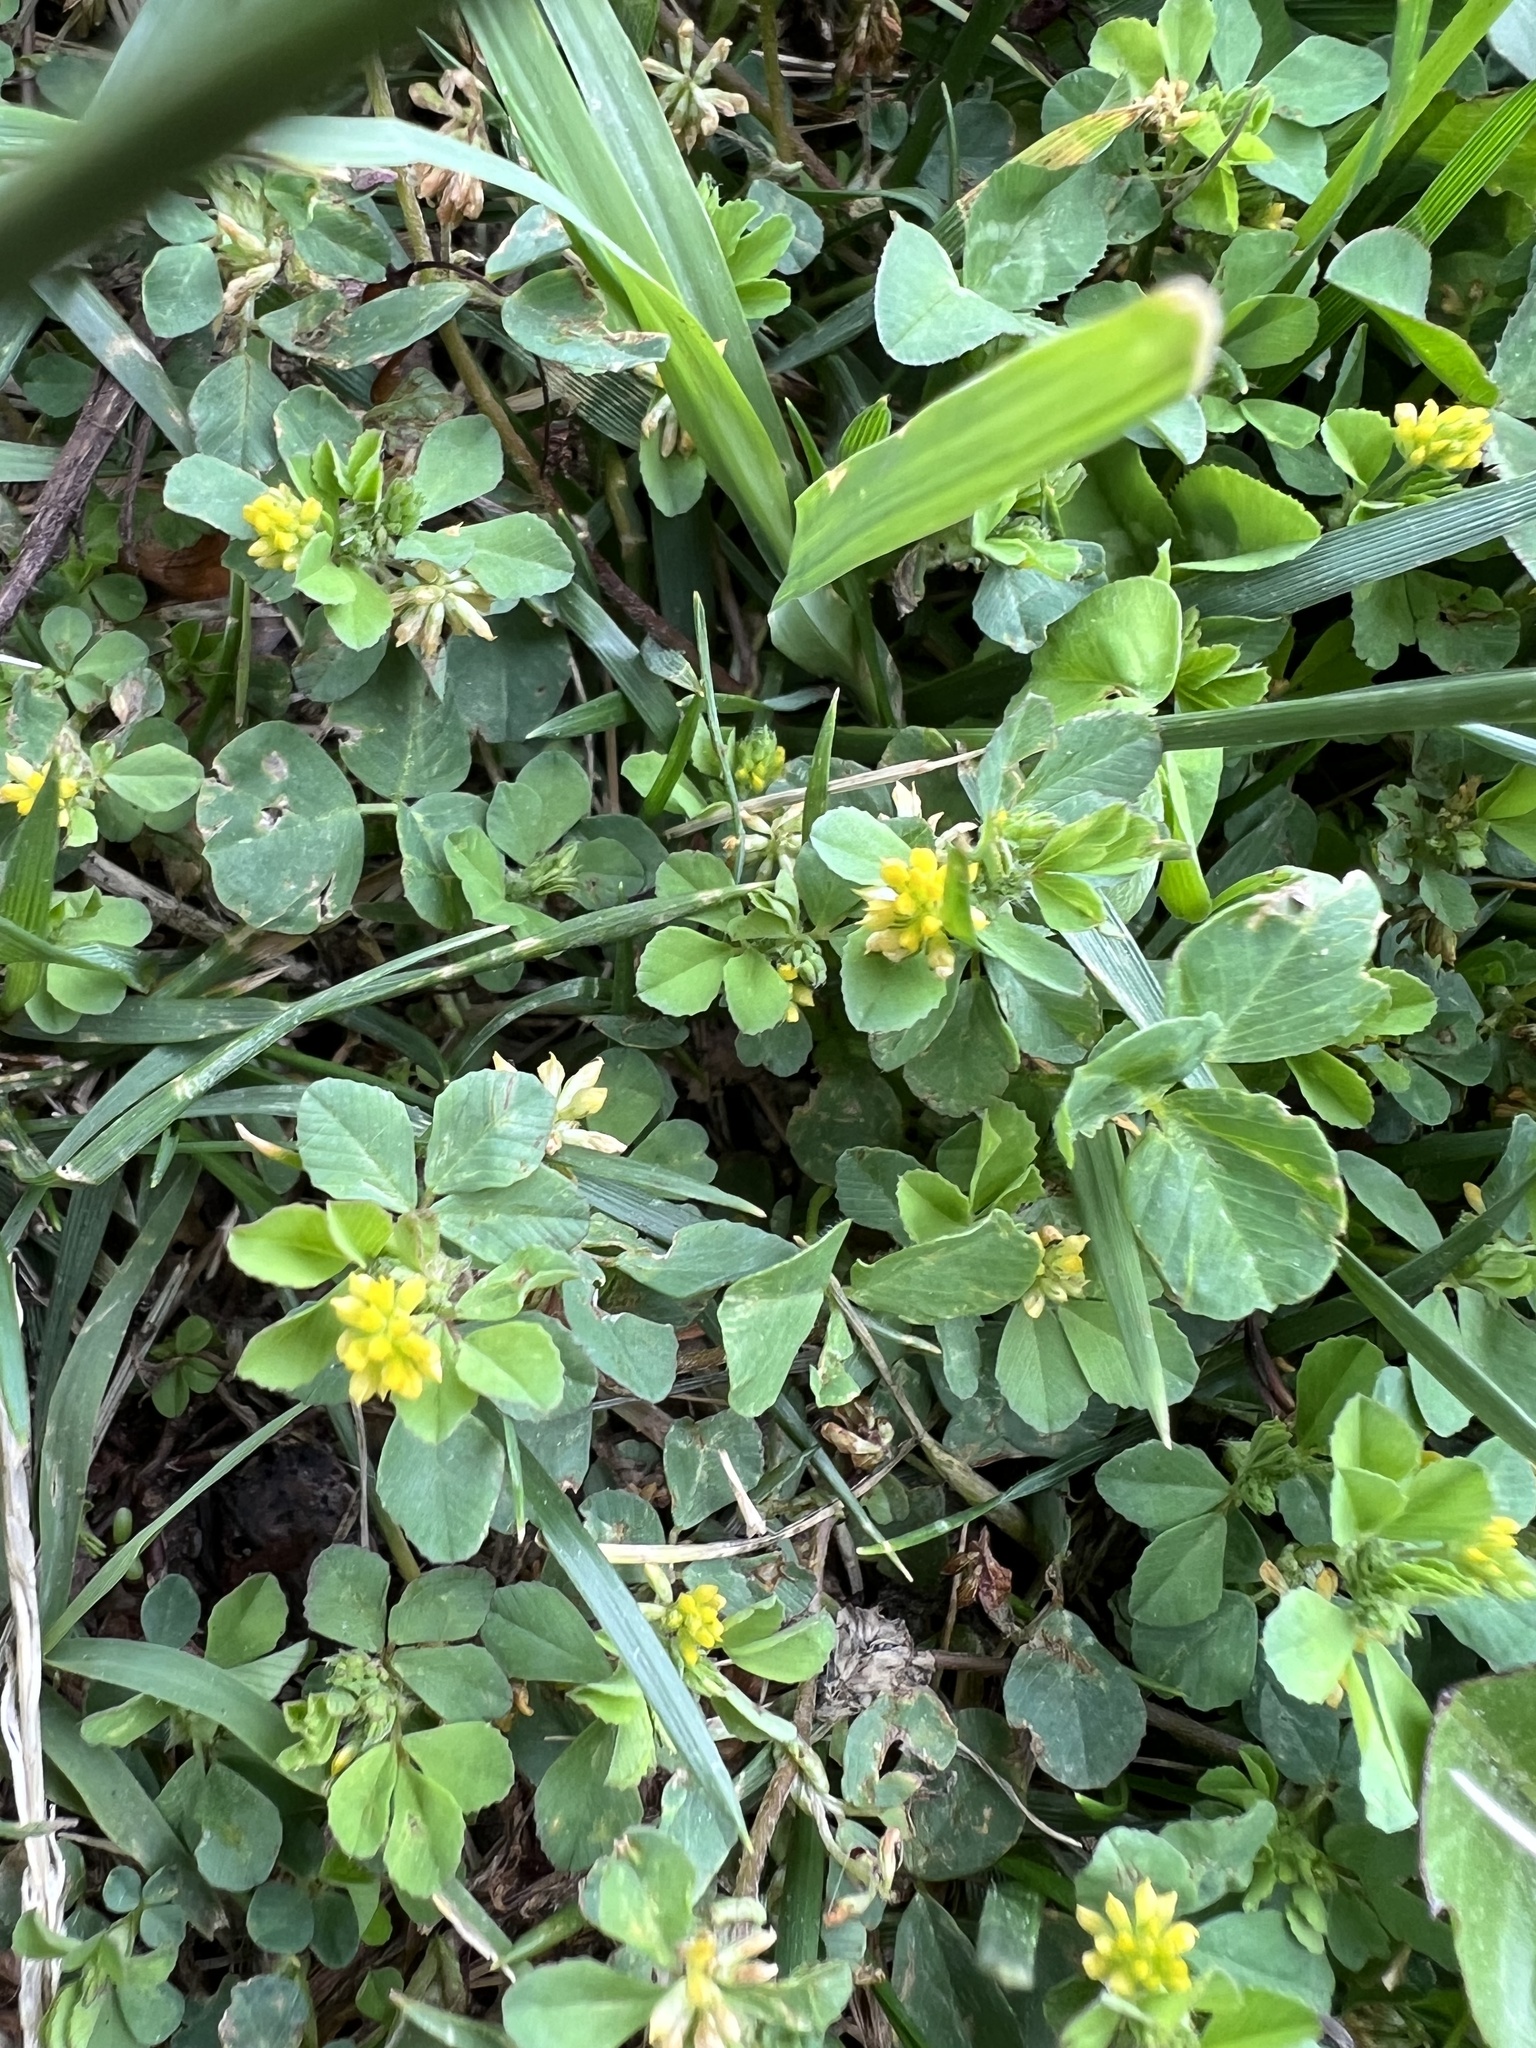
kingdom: Plantae
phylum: Tracheophyta
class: Magnoliopsida
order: Fabales
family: Fabaceae
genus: Trifolium
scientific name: Trifolium dubium
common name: Suckling clover
